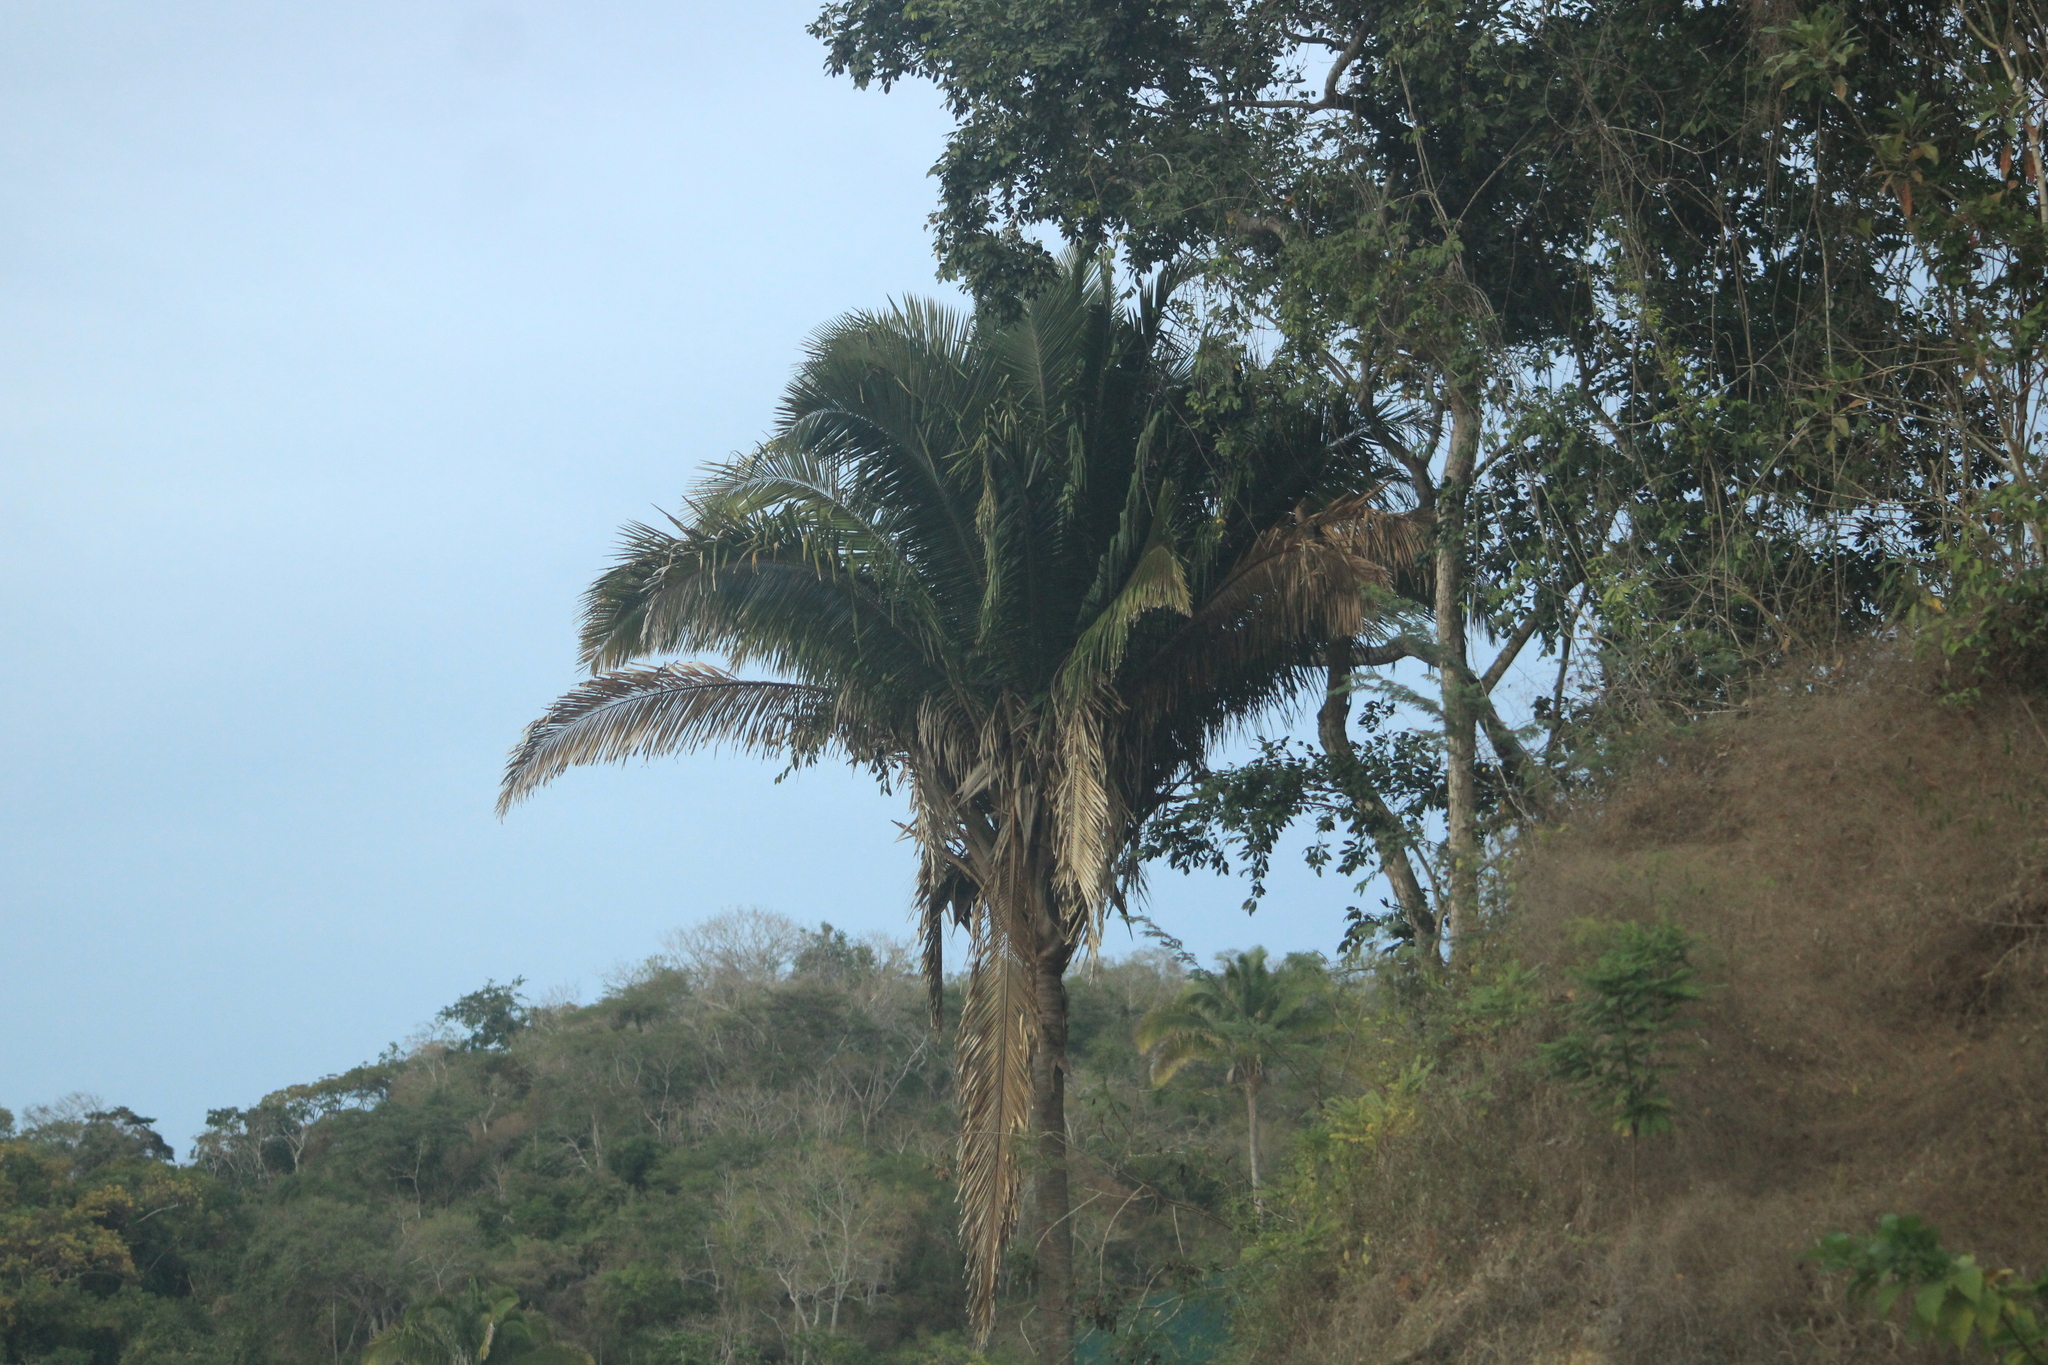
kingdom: Plantae
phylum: Tracheophyta
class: Liliopsida
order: Arecales
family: Arecaceae
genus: Attalea
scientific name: Attalea guacuyule
